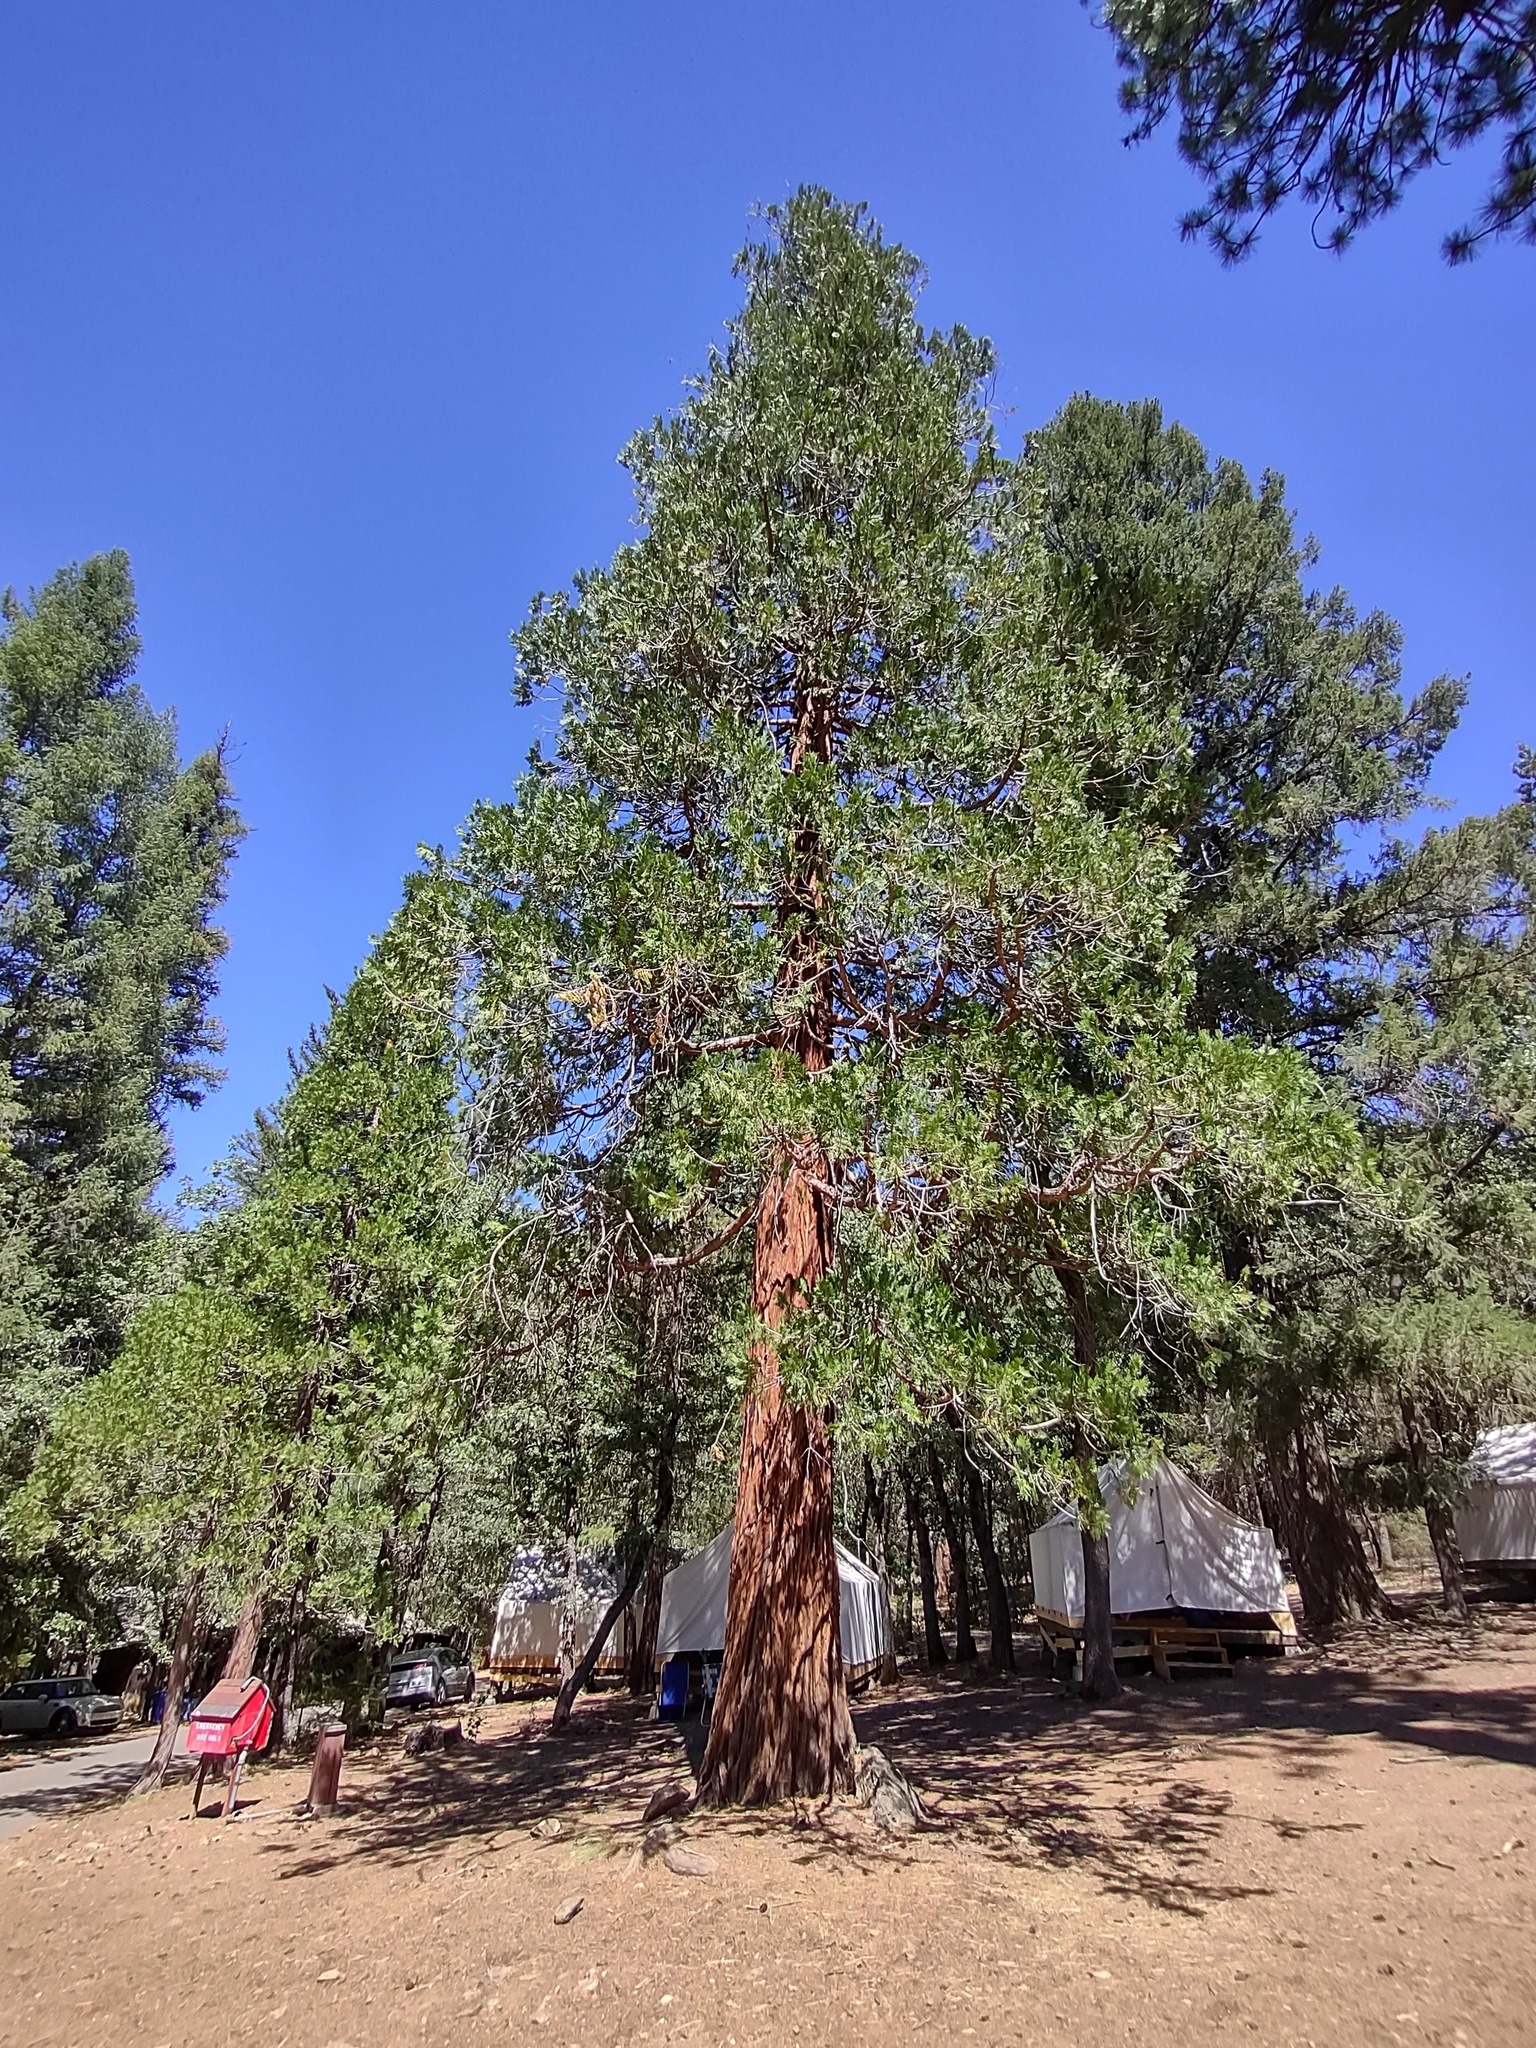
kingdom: Plantae
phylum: Tracheophyta
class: Pinopsida
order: Pinales
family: Cupressaceae
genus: Calocedrus
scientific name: Calocedrus decurrens
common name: Californian incense-cedar
